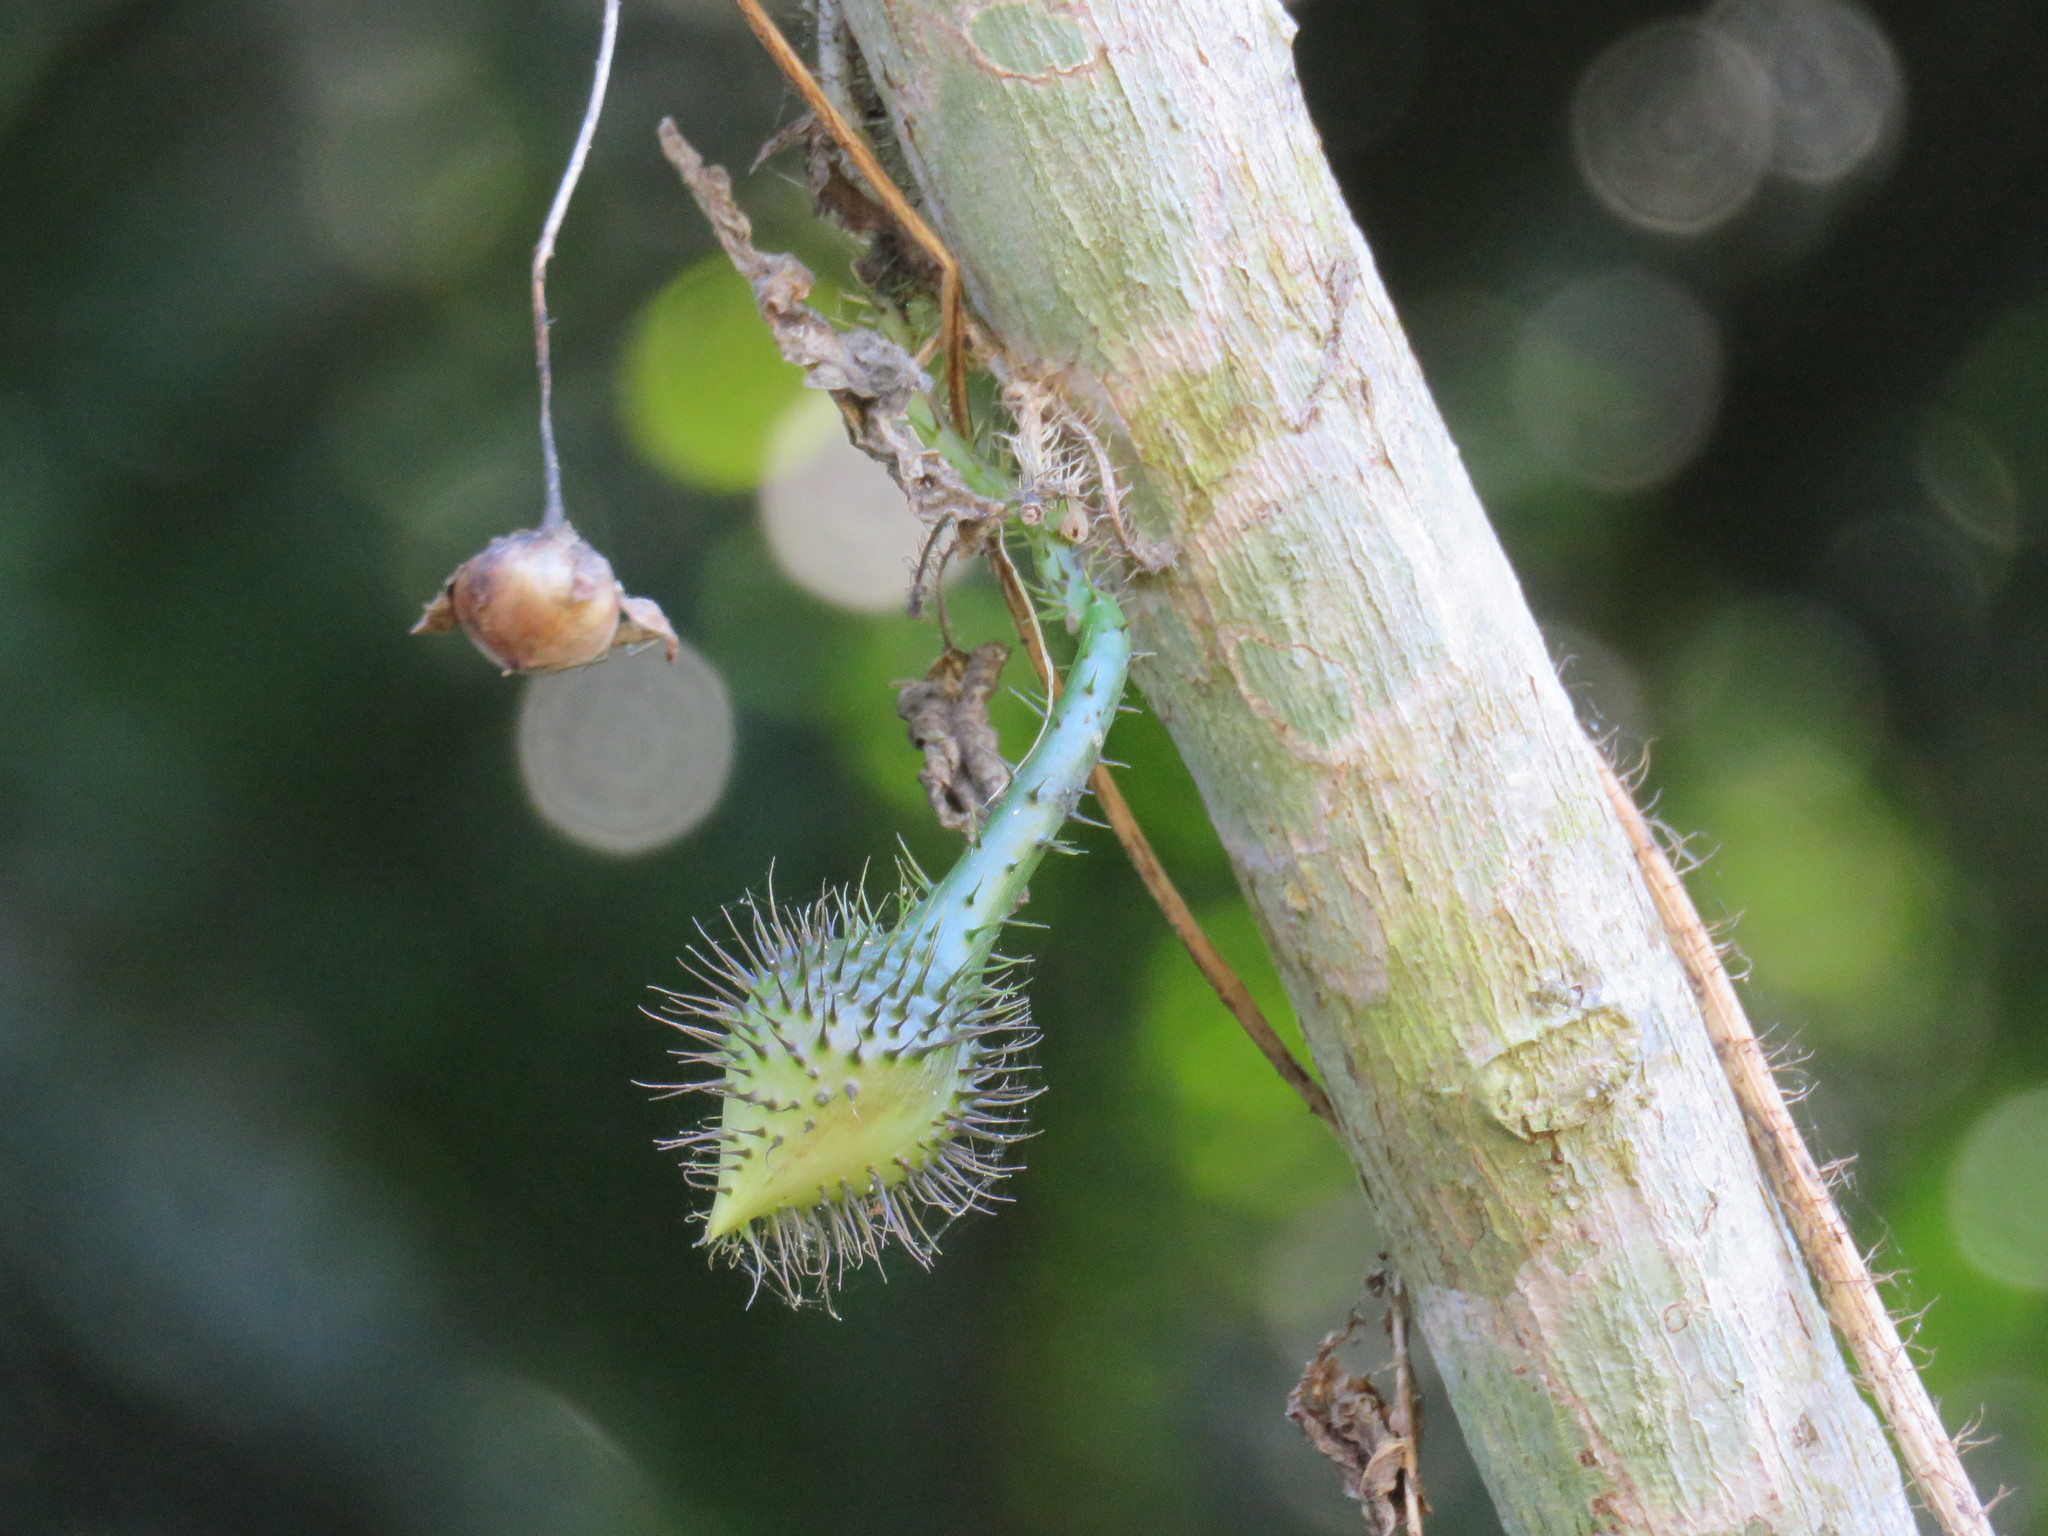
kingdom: Plantae
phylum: Tracheophyta
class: Magnoliopsida
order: Solanales
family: Convolvulaceae
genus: Ipomoea
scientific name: Ipomoea setosa
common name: Brazilian morning-glory
